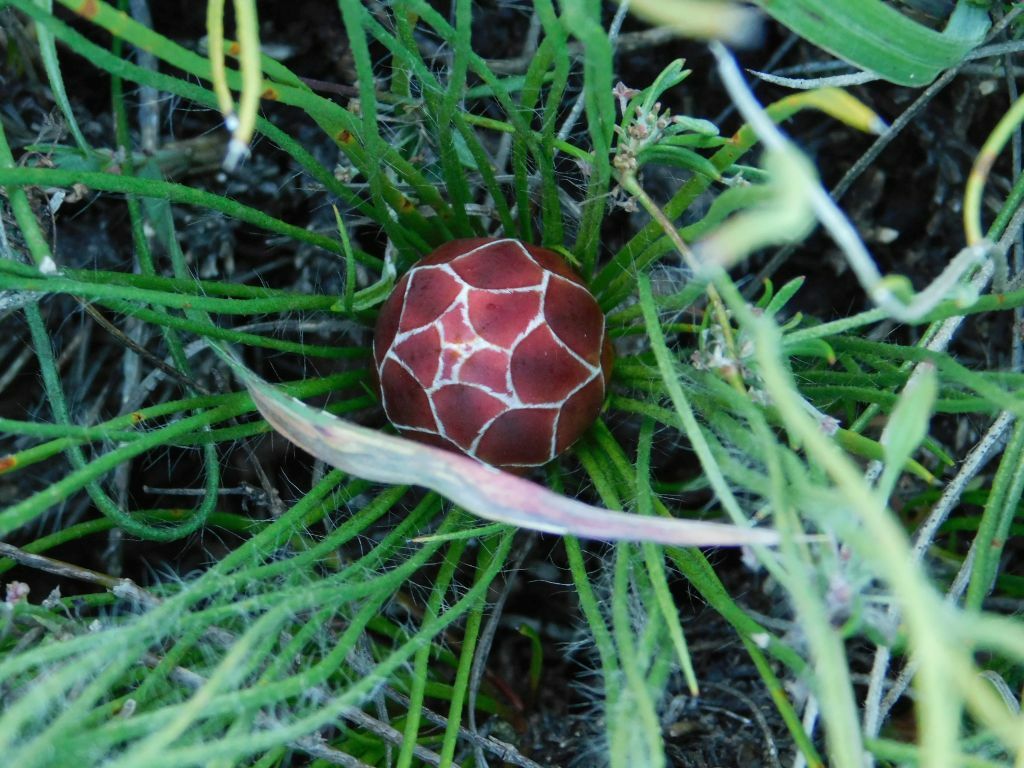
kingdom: Plantae
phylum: Tracheophyta
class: Magnoliopsida
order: Proteales
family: Proteaceae
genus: Protea
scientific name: Protea restionifolia
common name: Reed-leaf sugarbush
